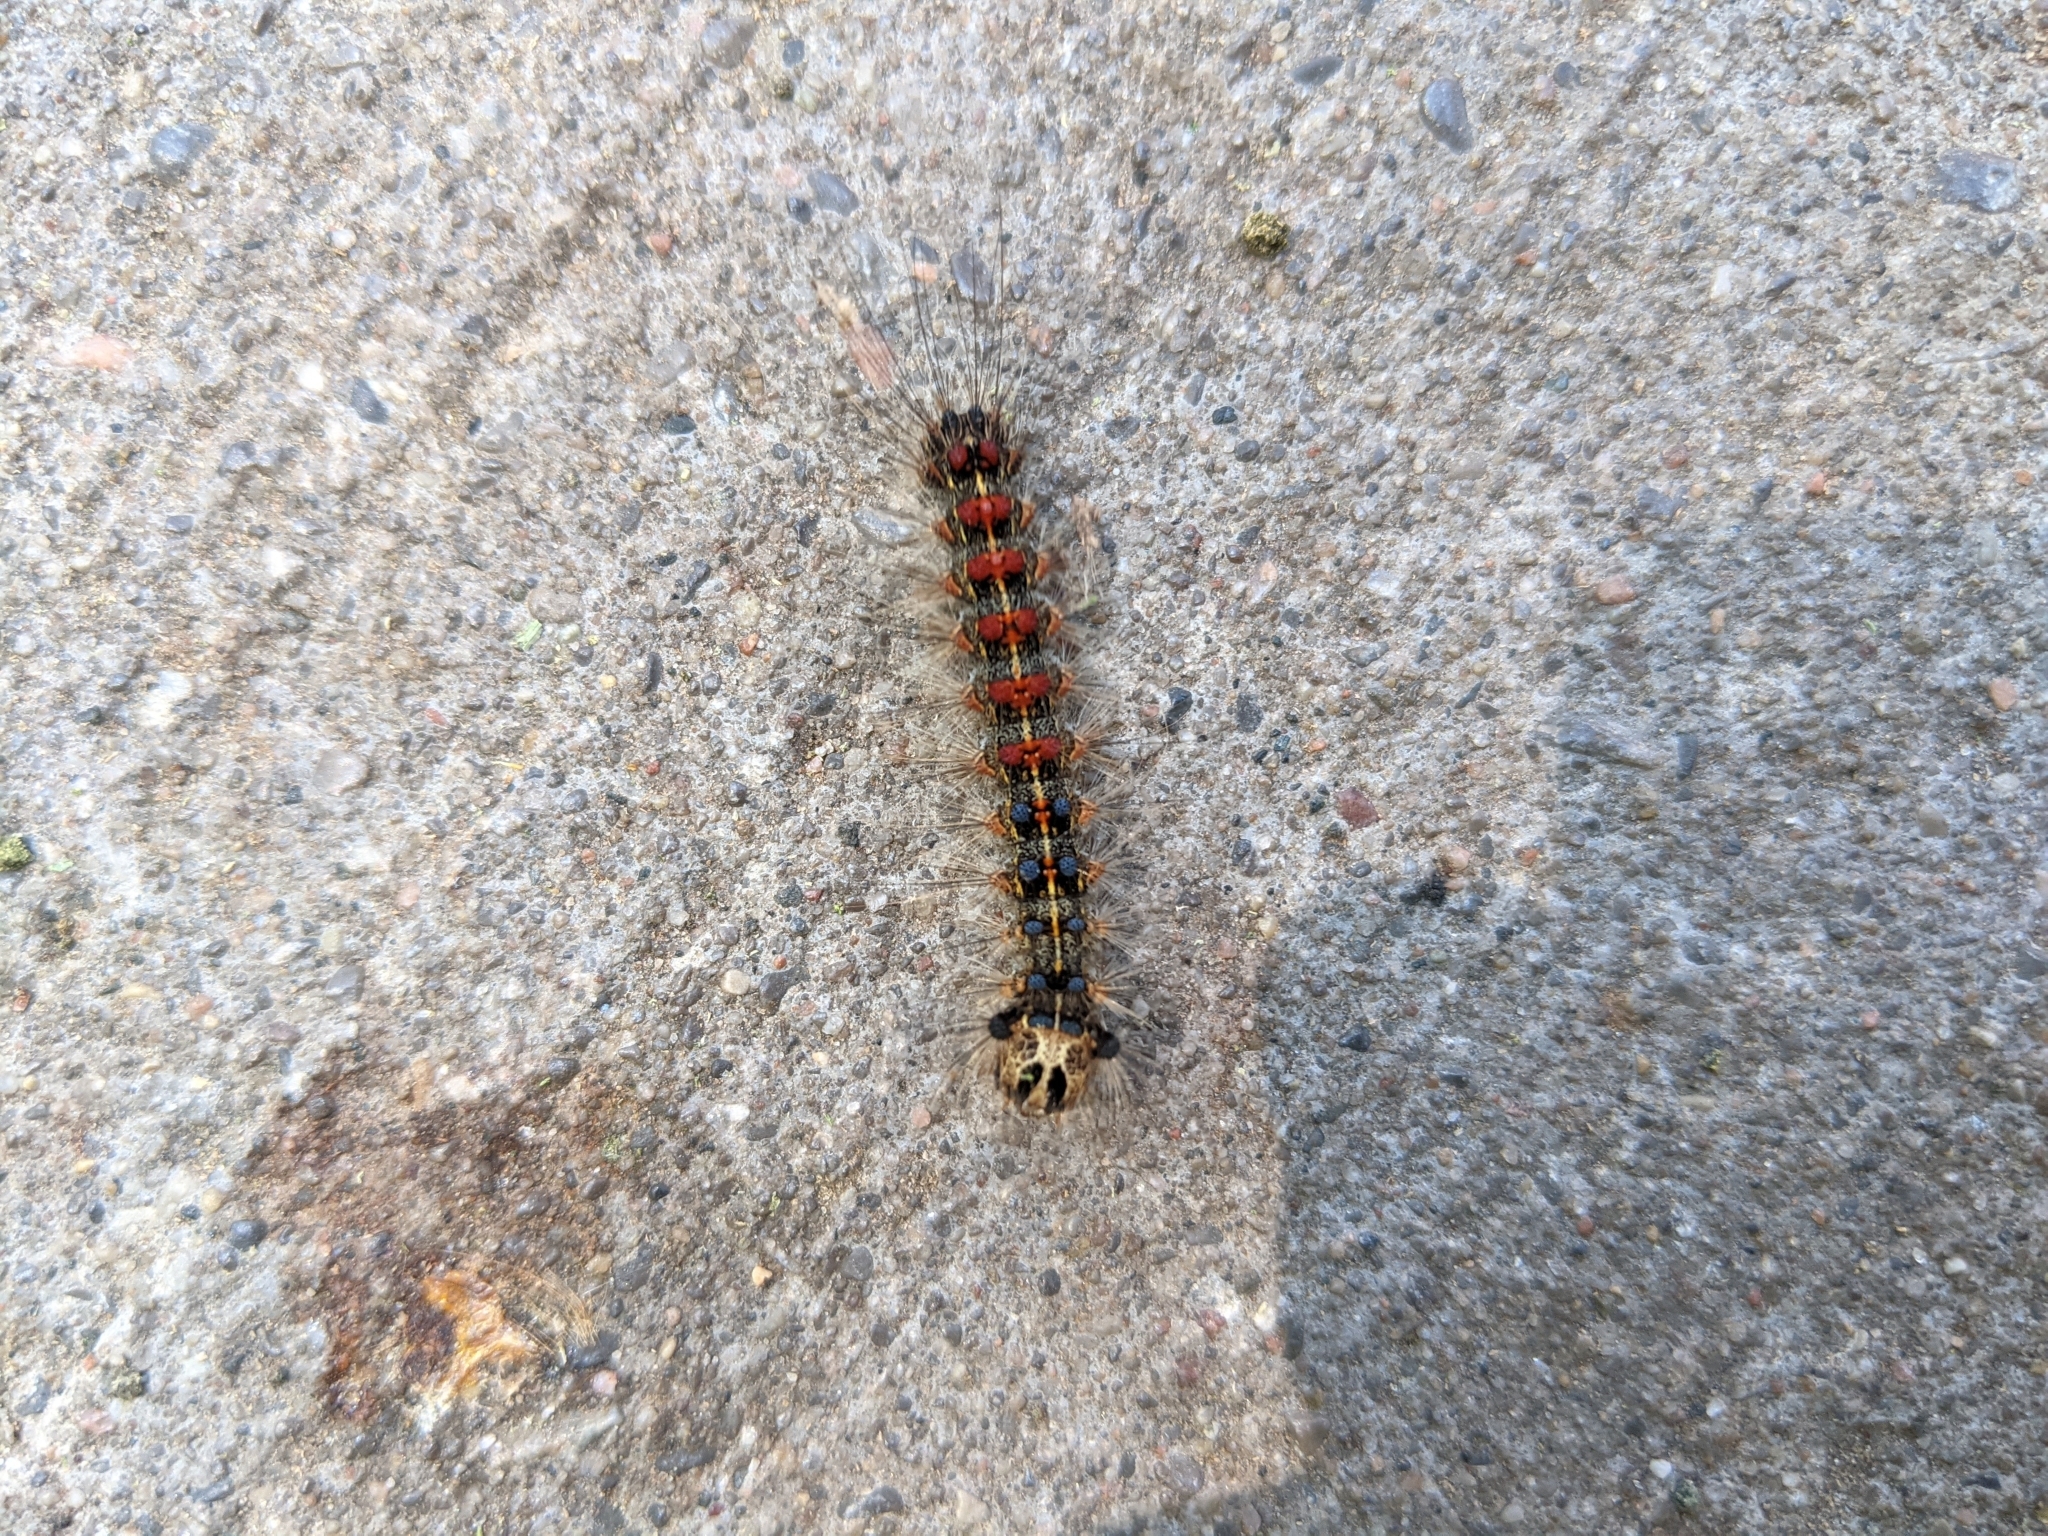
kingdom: Animalia
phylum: Arthropoda
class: Insecta
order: Lepidoptera
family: Erebidae
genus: Lymantria
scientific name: Lymantria dispar
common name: Gypsy moth
